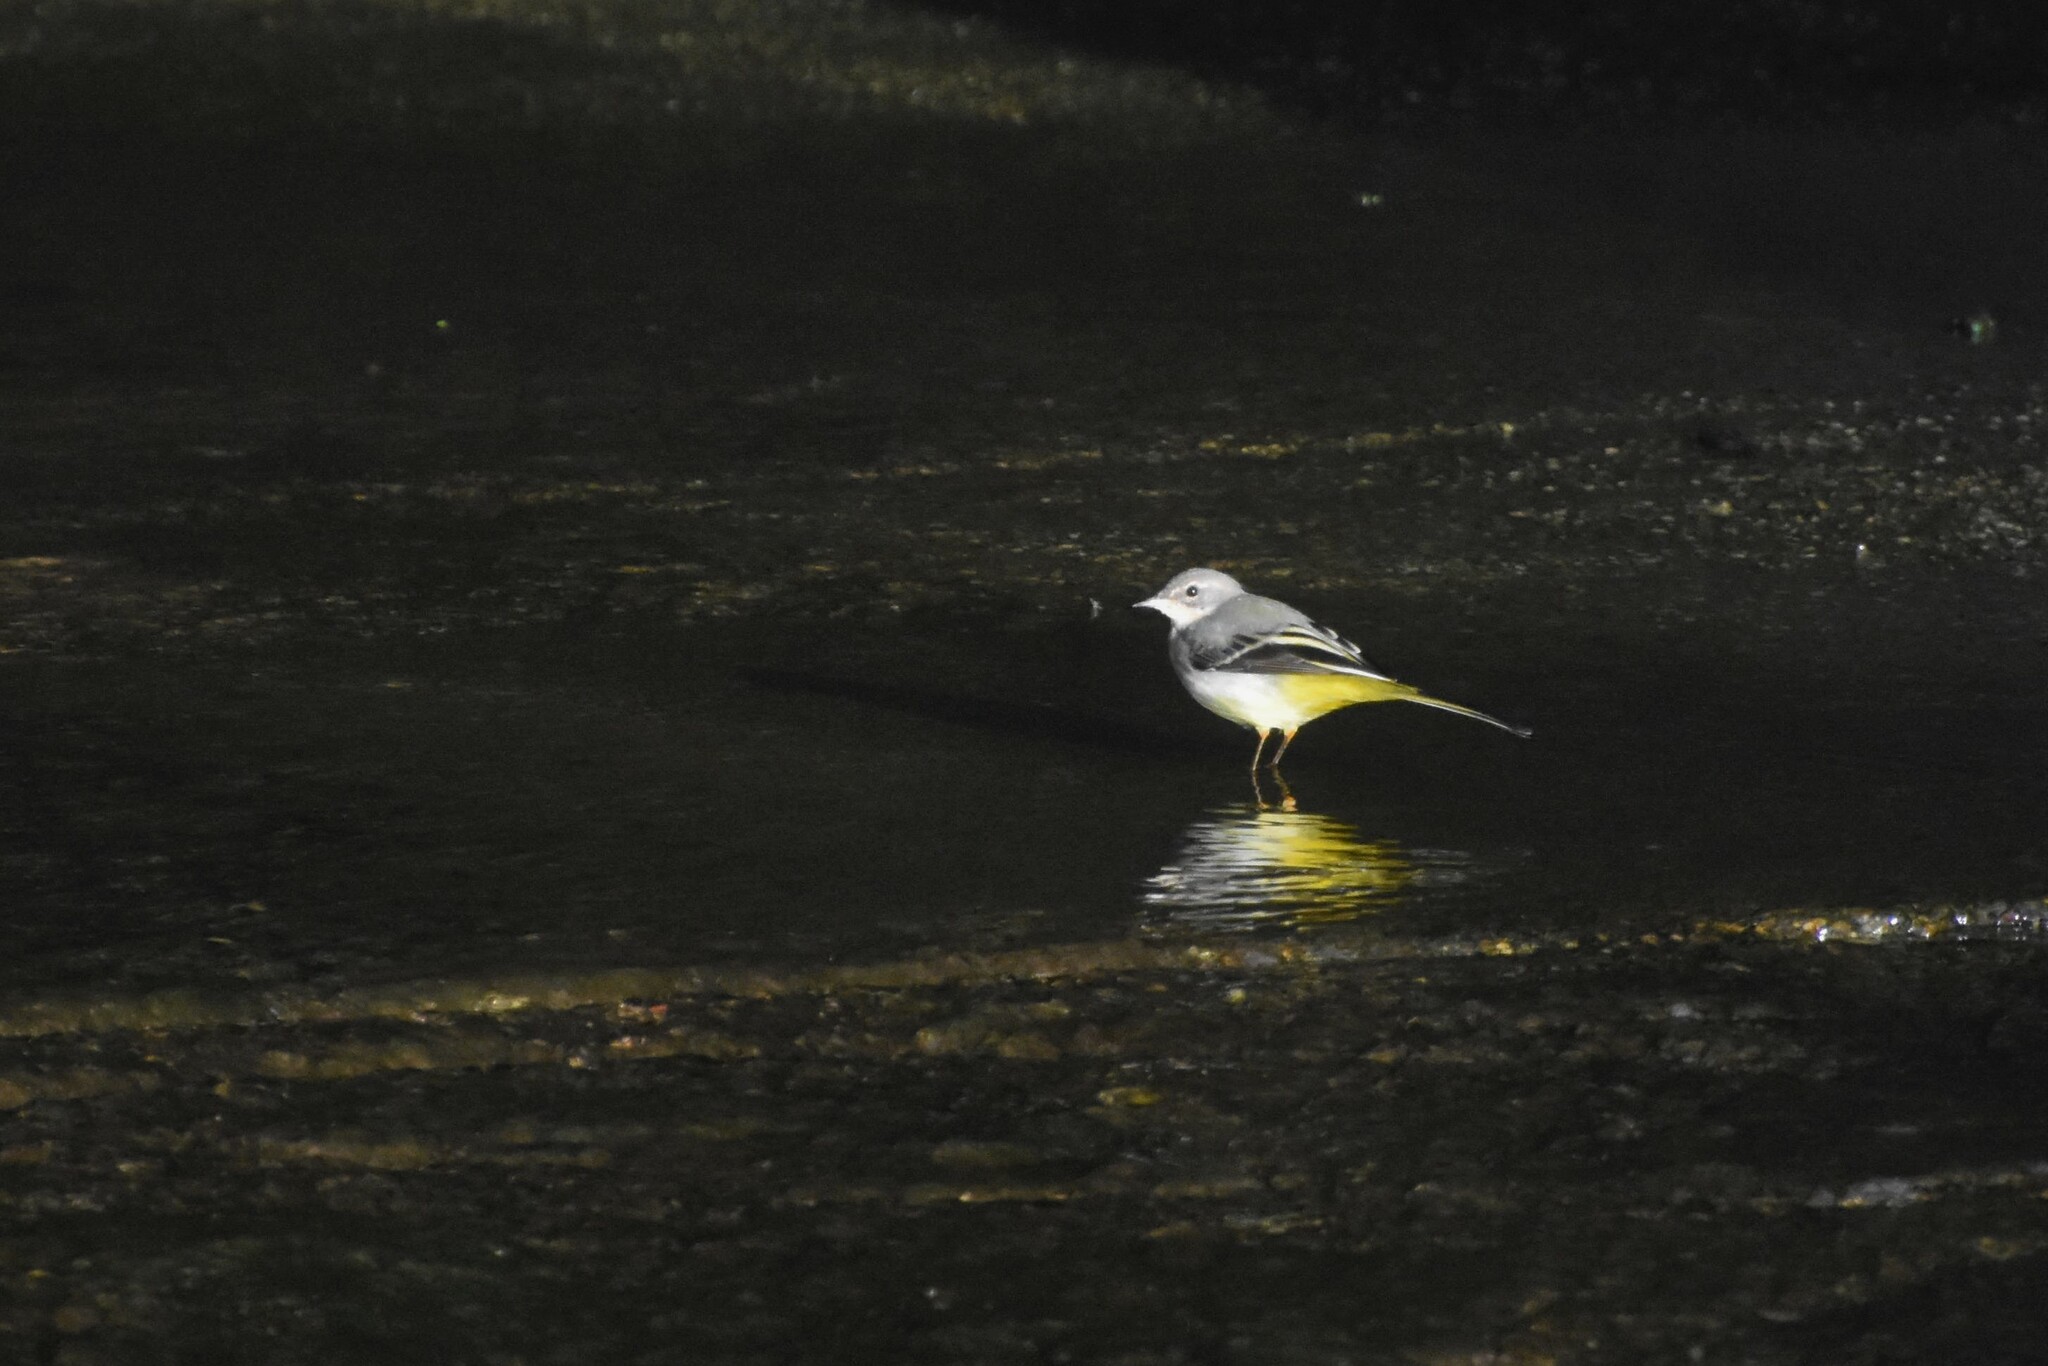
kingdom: Animalia
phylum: Chordata
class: Aves
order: Passeriformes
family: Motacillidae
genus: Motacilla
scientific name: Motacilla cinerea
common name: Grey wagtail
